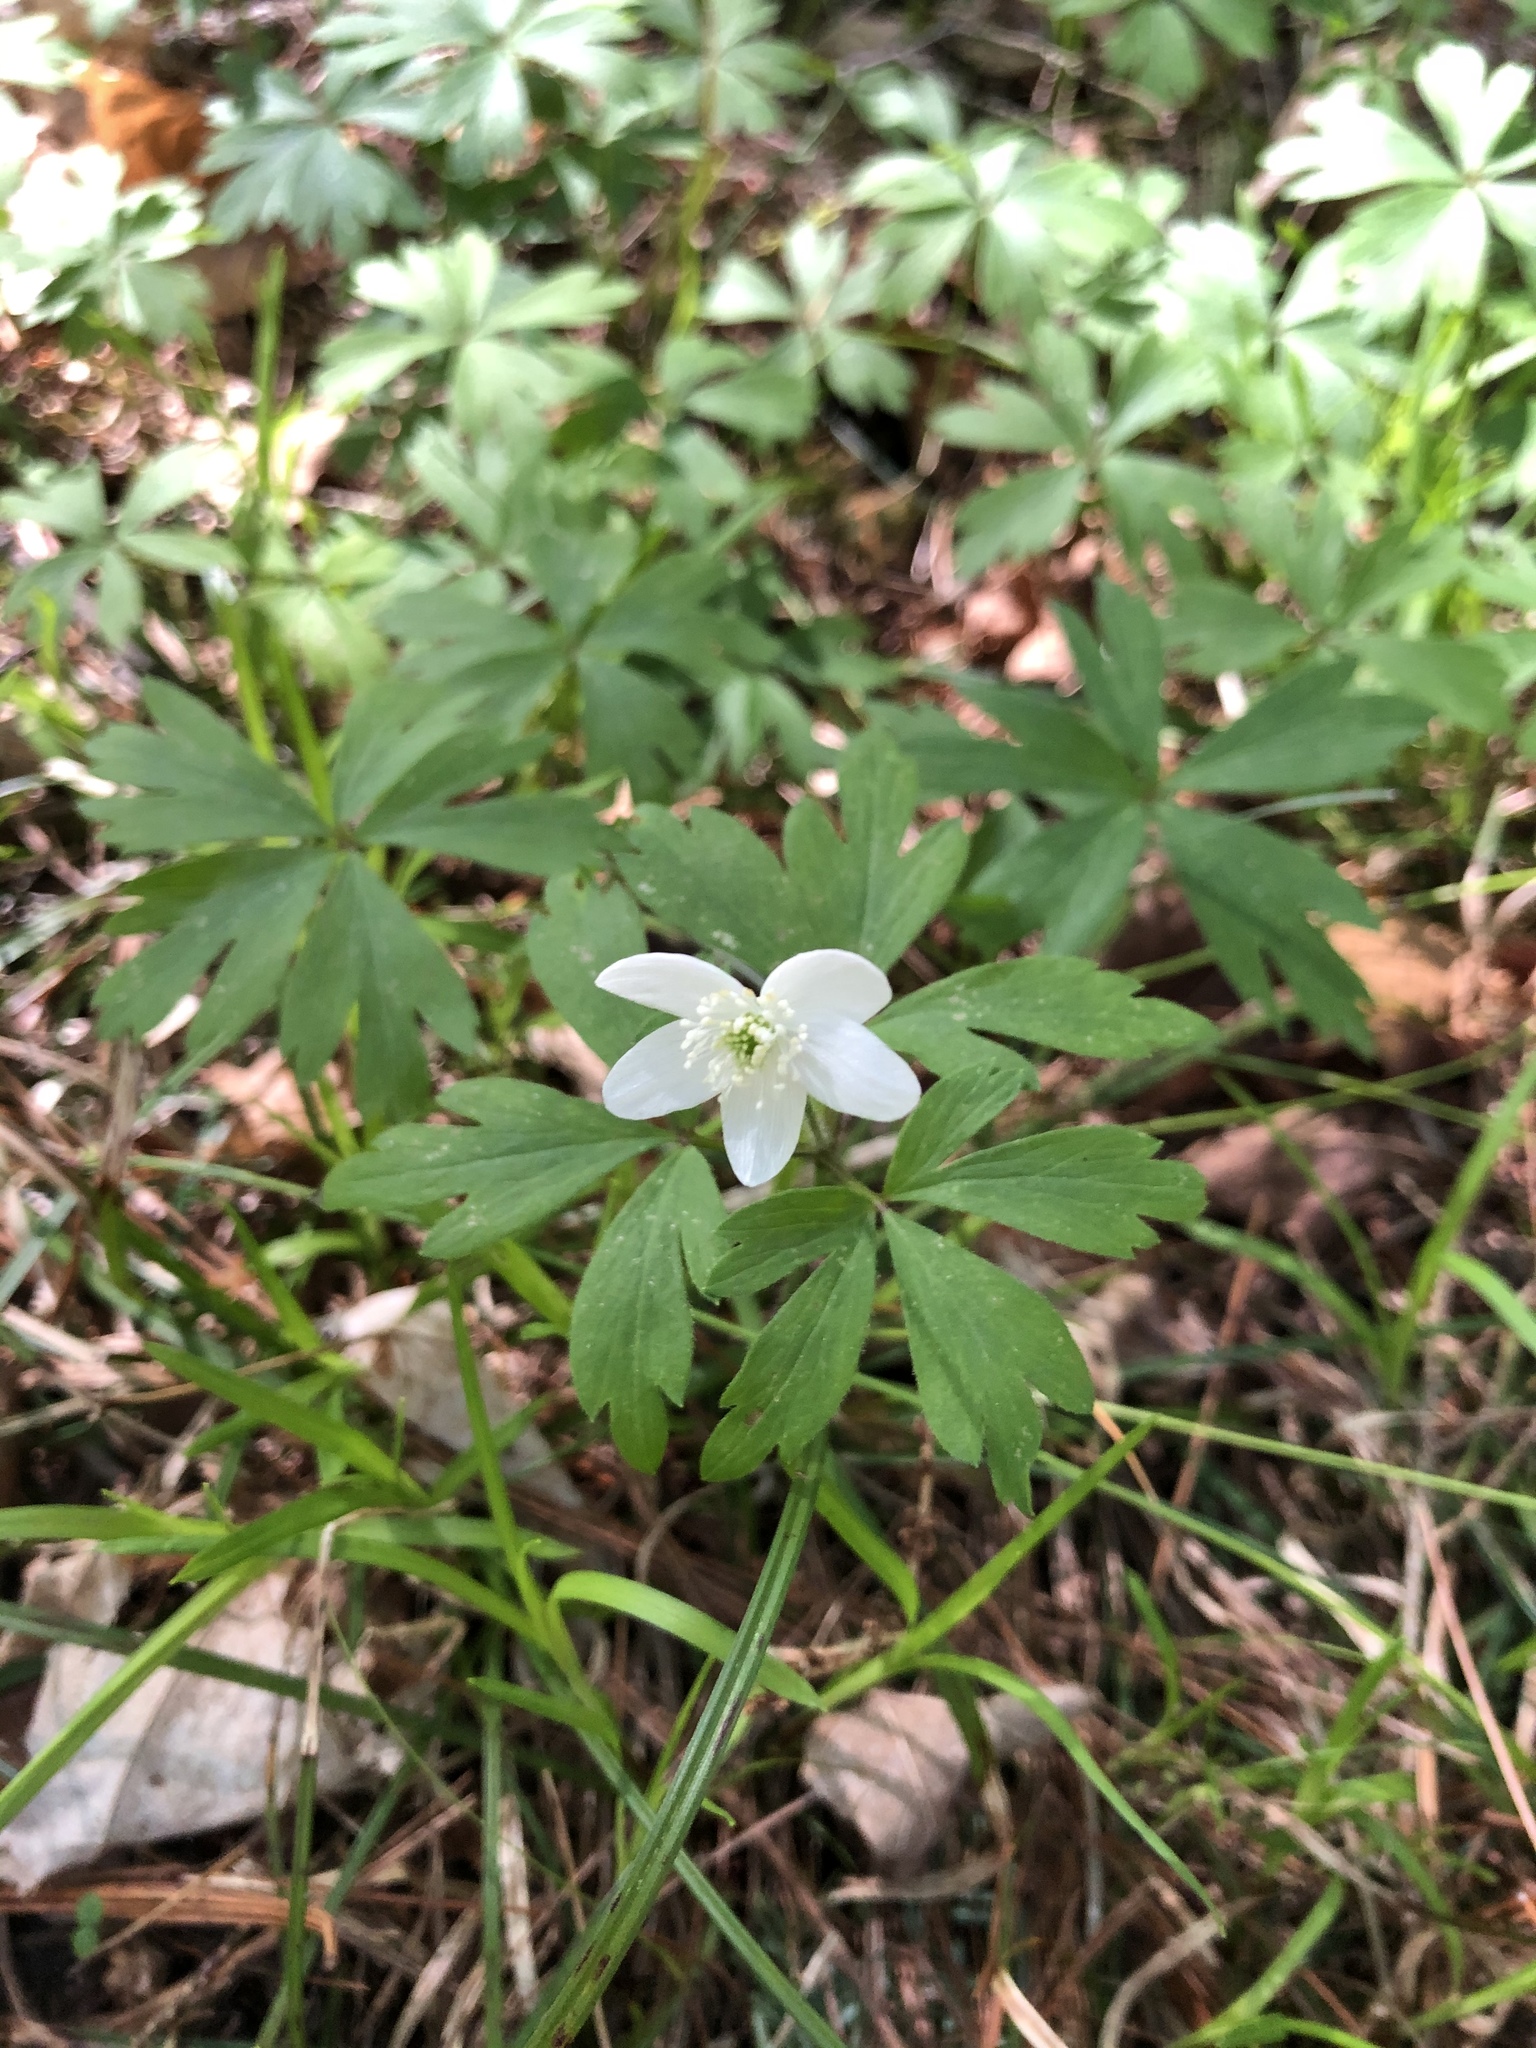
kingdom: Plantae
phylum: Tracheophyta
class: Magnoliopsida
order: Ranunculales
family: Ranunculaceae
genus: Anemone
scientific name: Anemone quinquefolia
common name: Wood anemone
